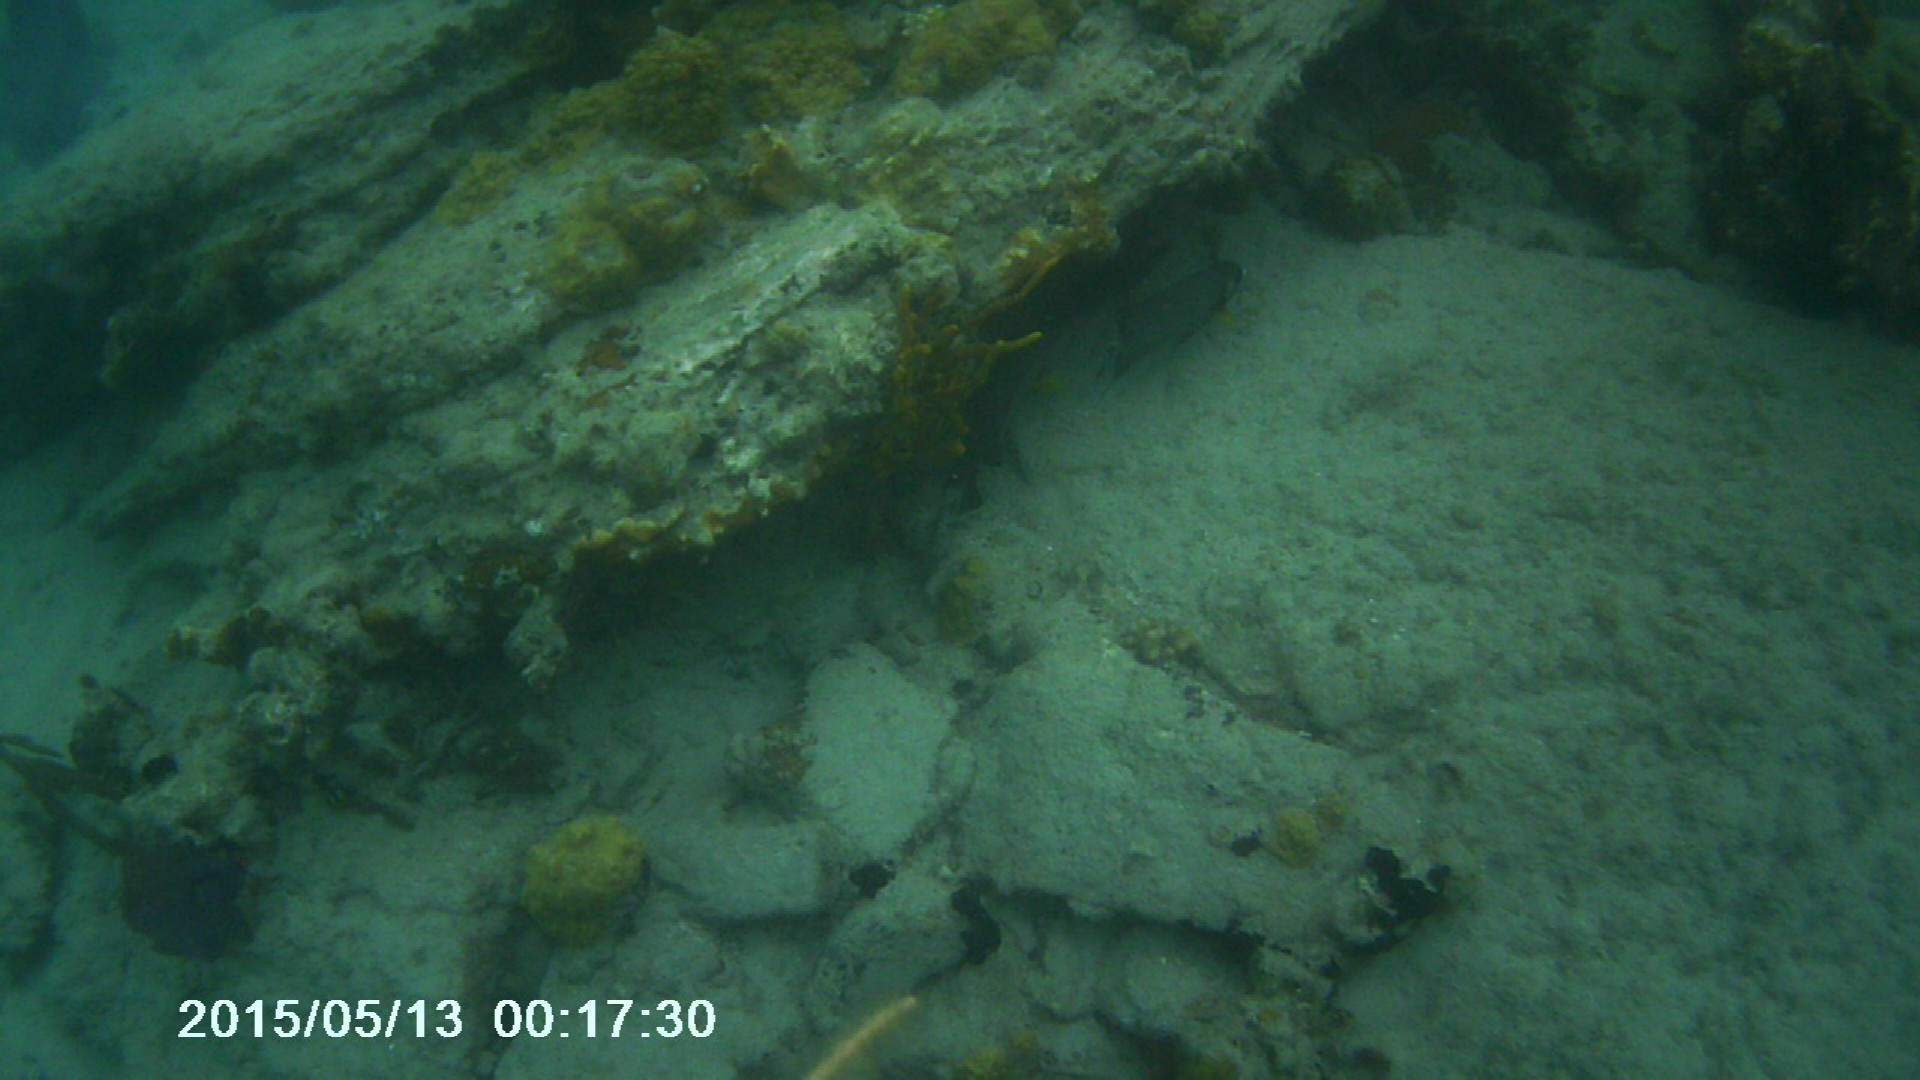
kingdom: Animalia
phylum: Chordata
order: Perciformes
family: Pomacanthidae
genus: Pomacanthus
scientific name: Pomacanthus arcuatus
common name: Gray angelfish
